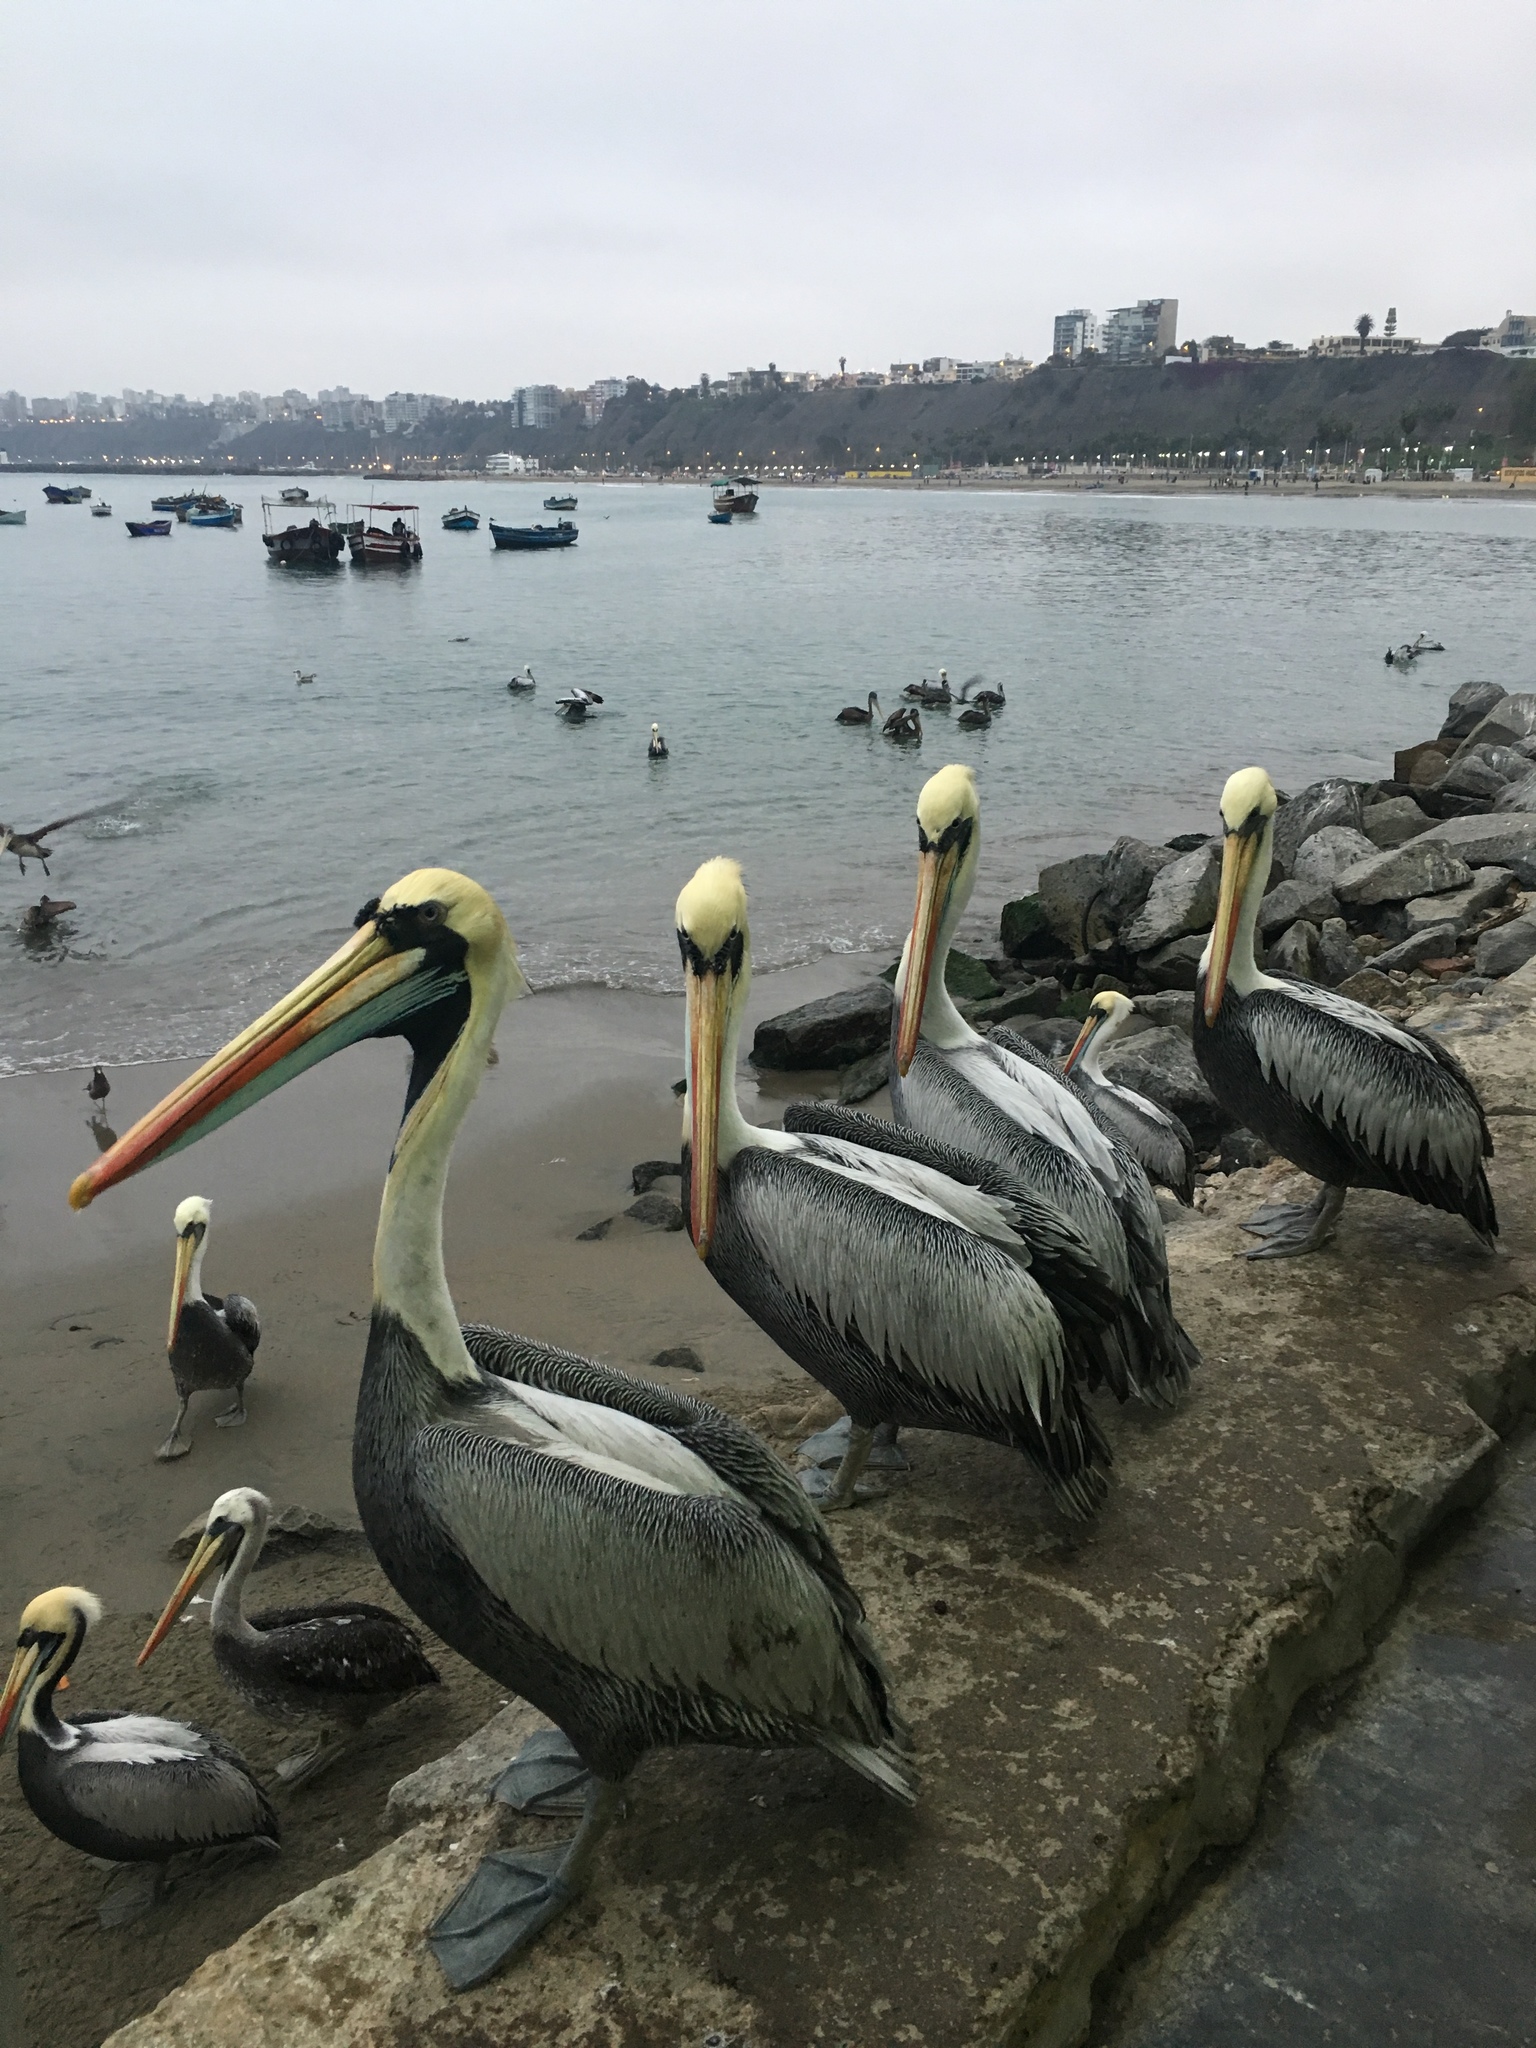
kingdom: Animalia
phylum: Chordata
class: Aves
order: Pelecaniformes
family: Pelecanidae
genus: Pelecanus
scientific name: Pelecanus thagus
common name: Peruvian pelican
